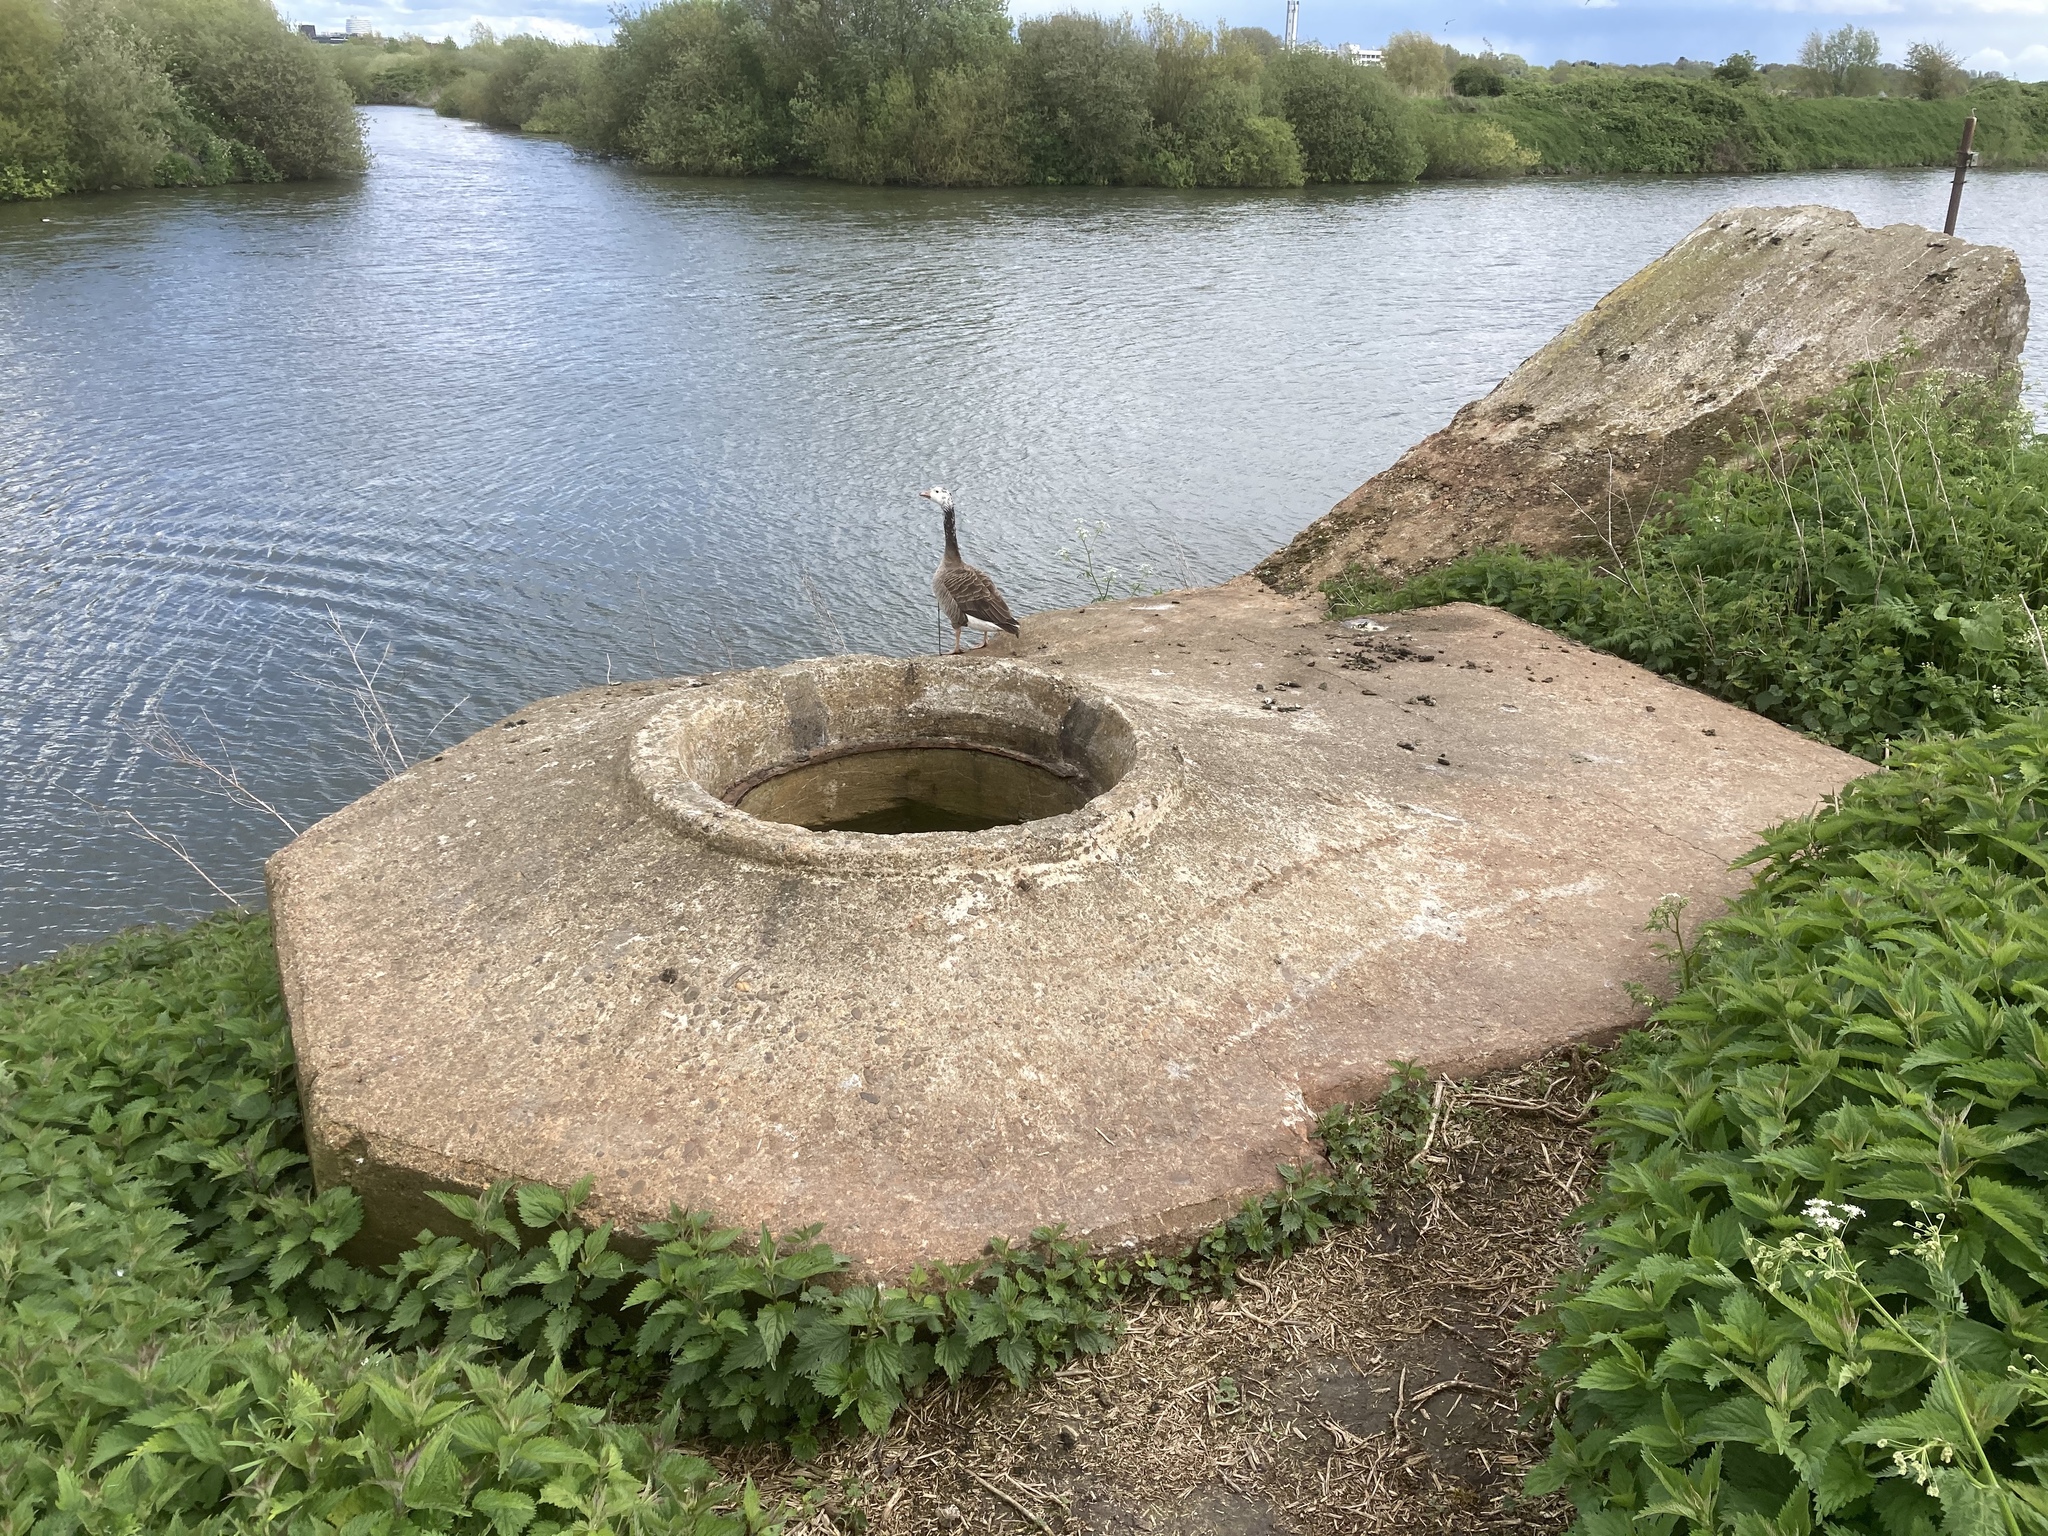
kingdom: Animalia
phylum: Chordata
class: Aves
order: Anseriformes
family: Anatidae
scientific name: Anatidae
